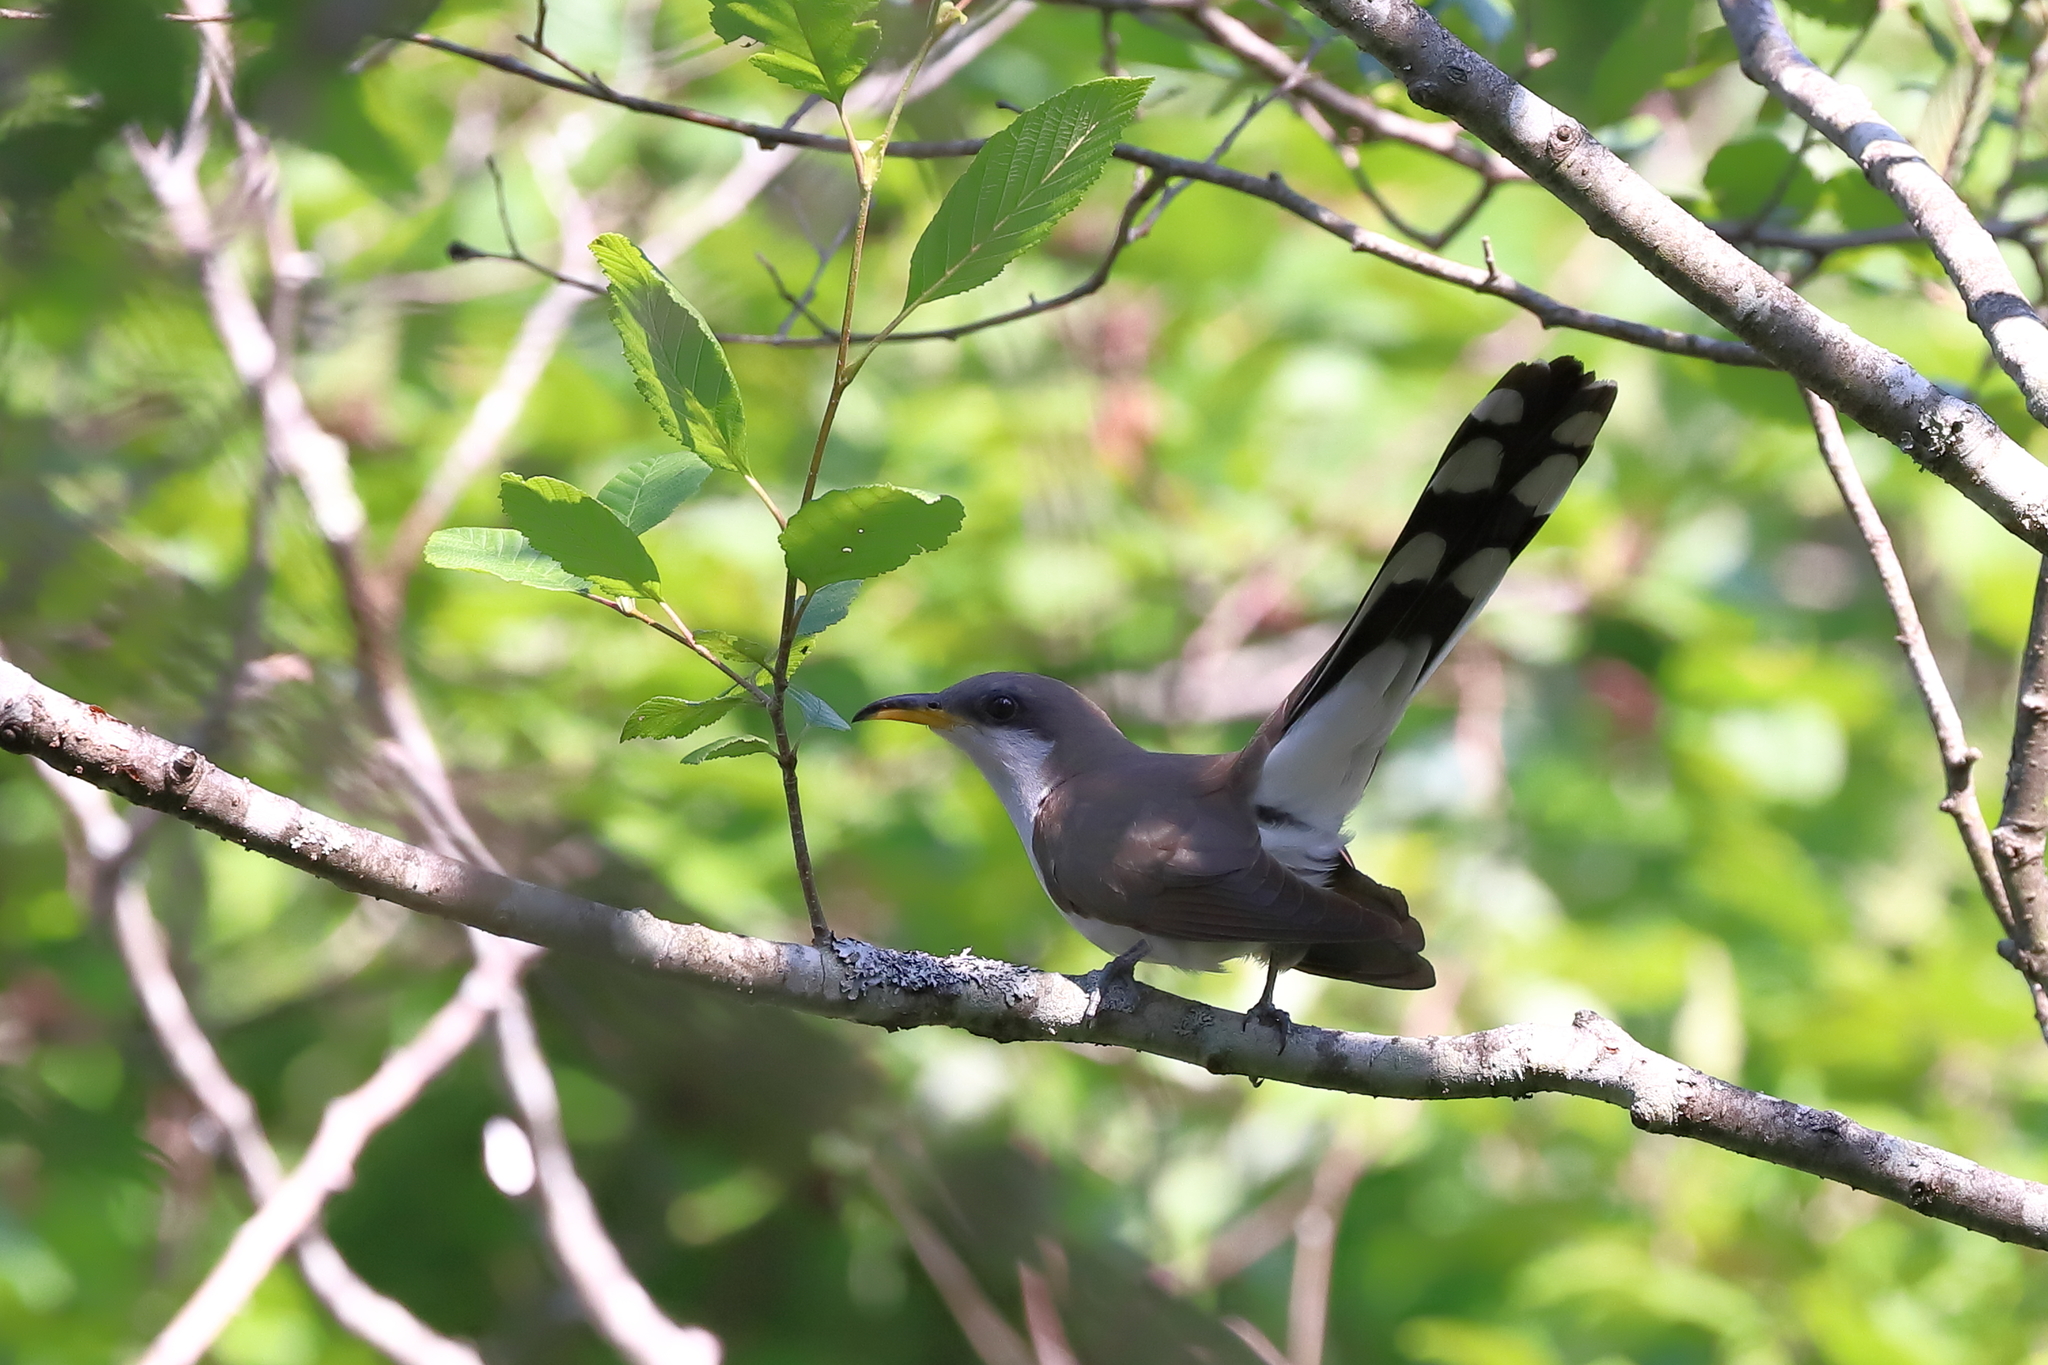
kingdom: Animalia
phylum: Chordata
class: Aves
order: Cuculiformes
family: Cuculidae
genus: Coccyzus
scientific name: Coccyzus americanus
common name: Yellow-billed cuckoo
